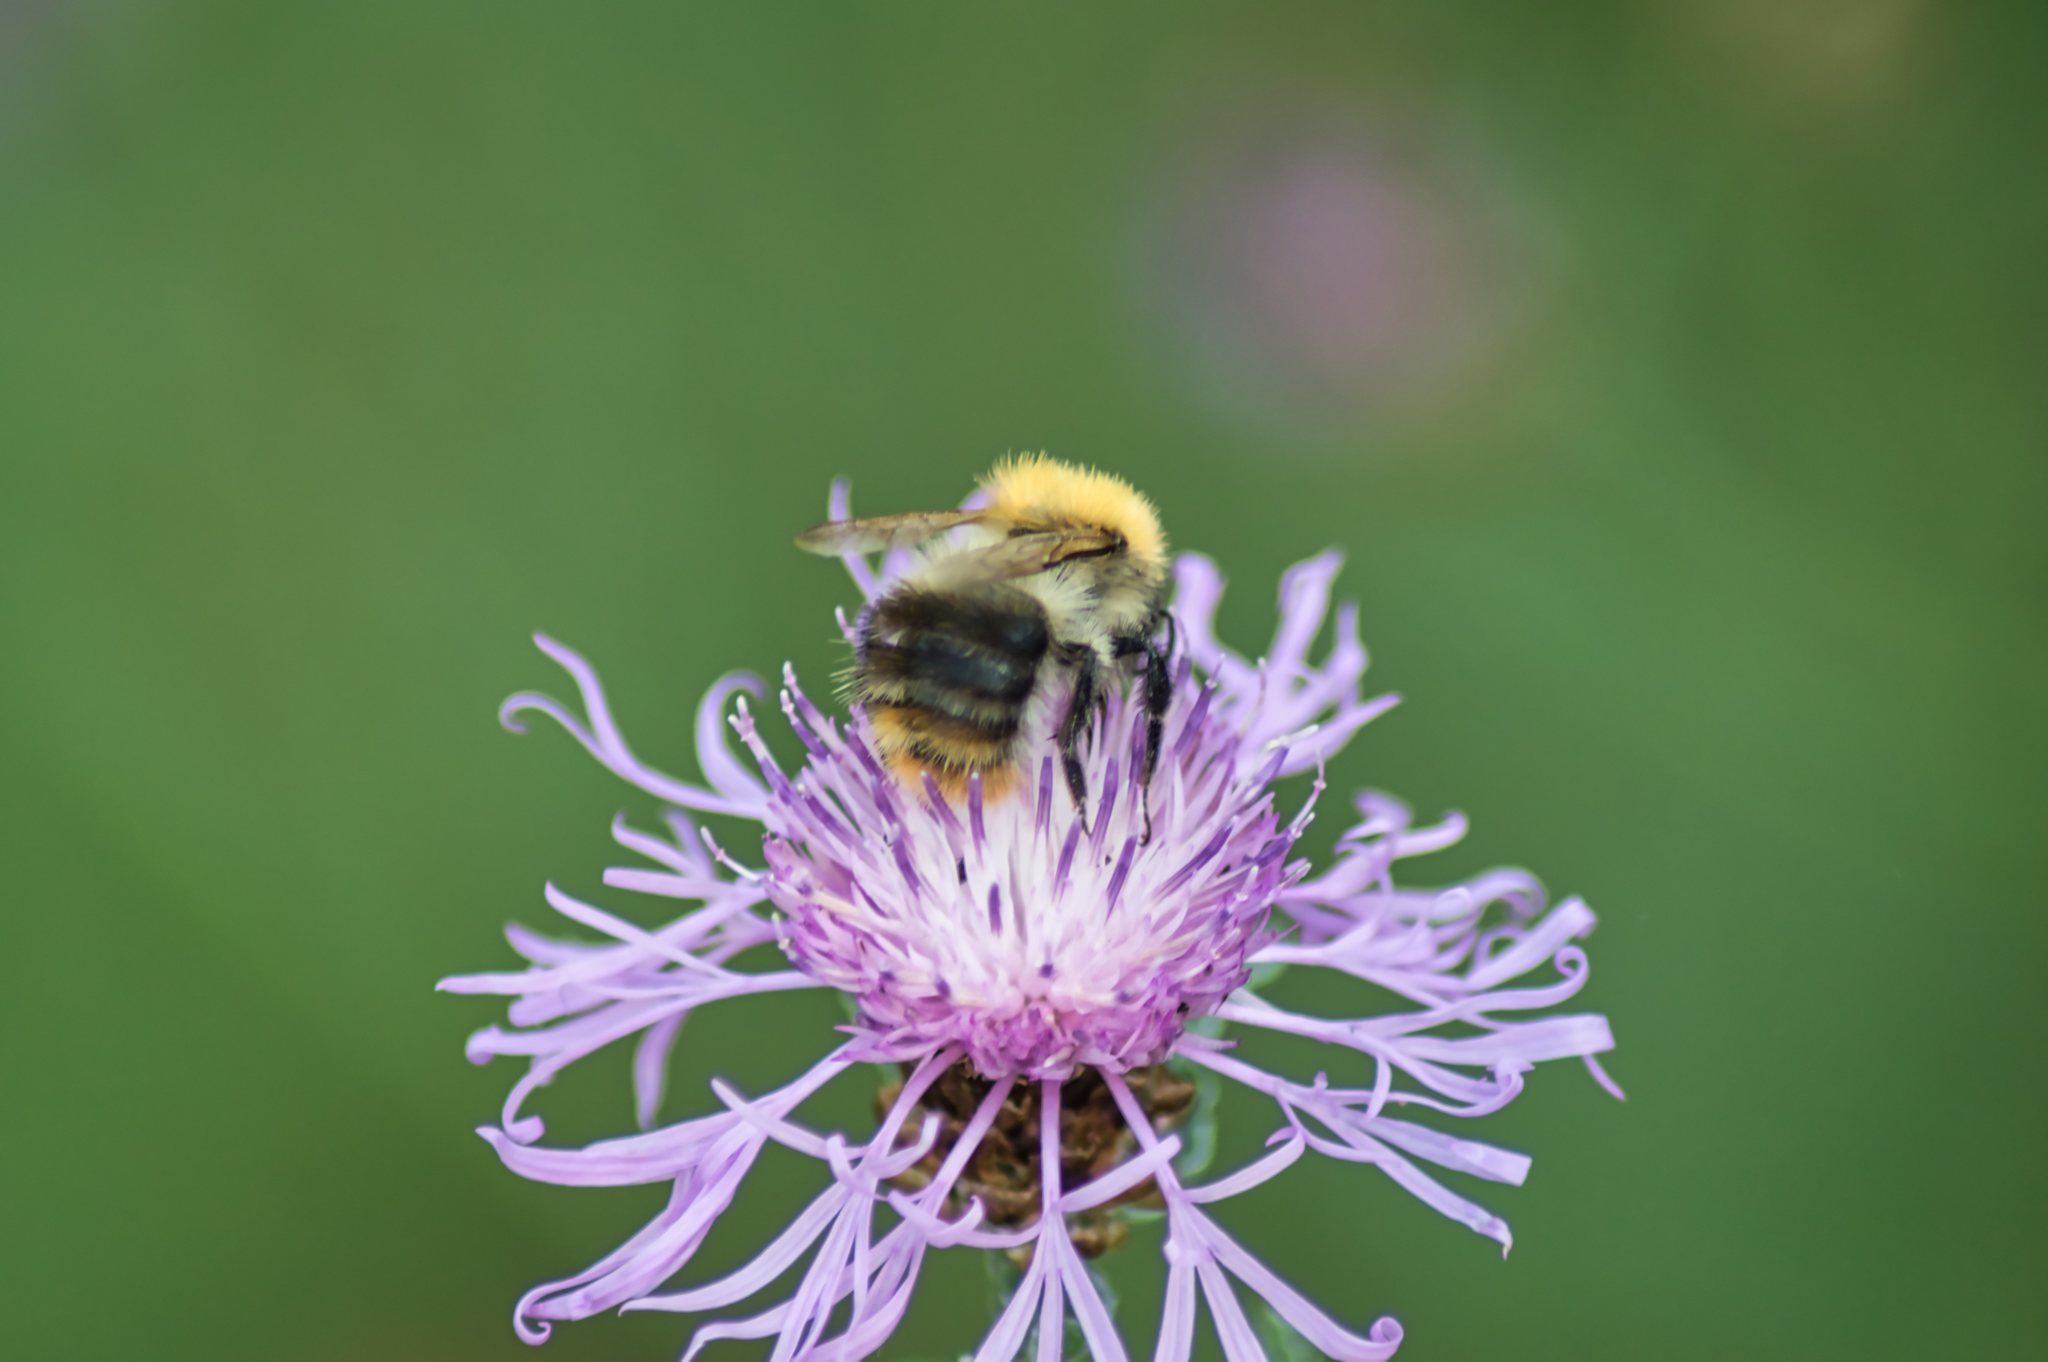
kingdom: Animalia
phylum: Arthropoda
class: Insecta
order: Hymenoptera
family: Apidae
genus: Bombus
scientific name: Bombus pascuorum
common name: Common carder bee
